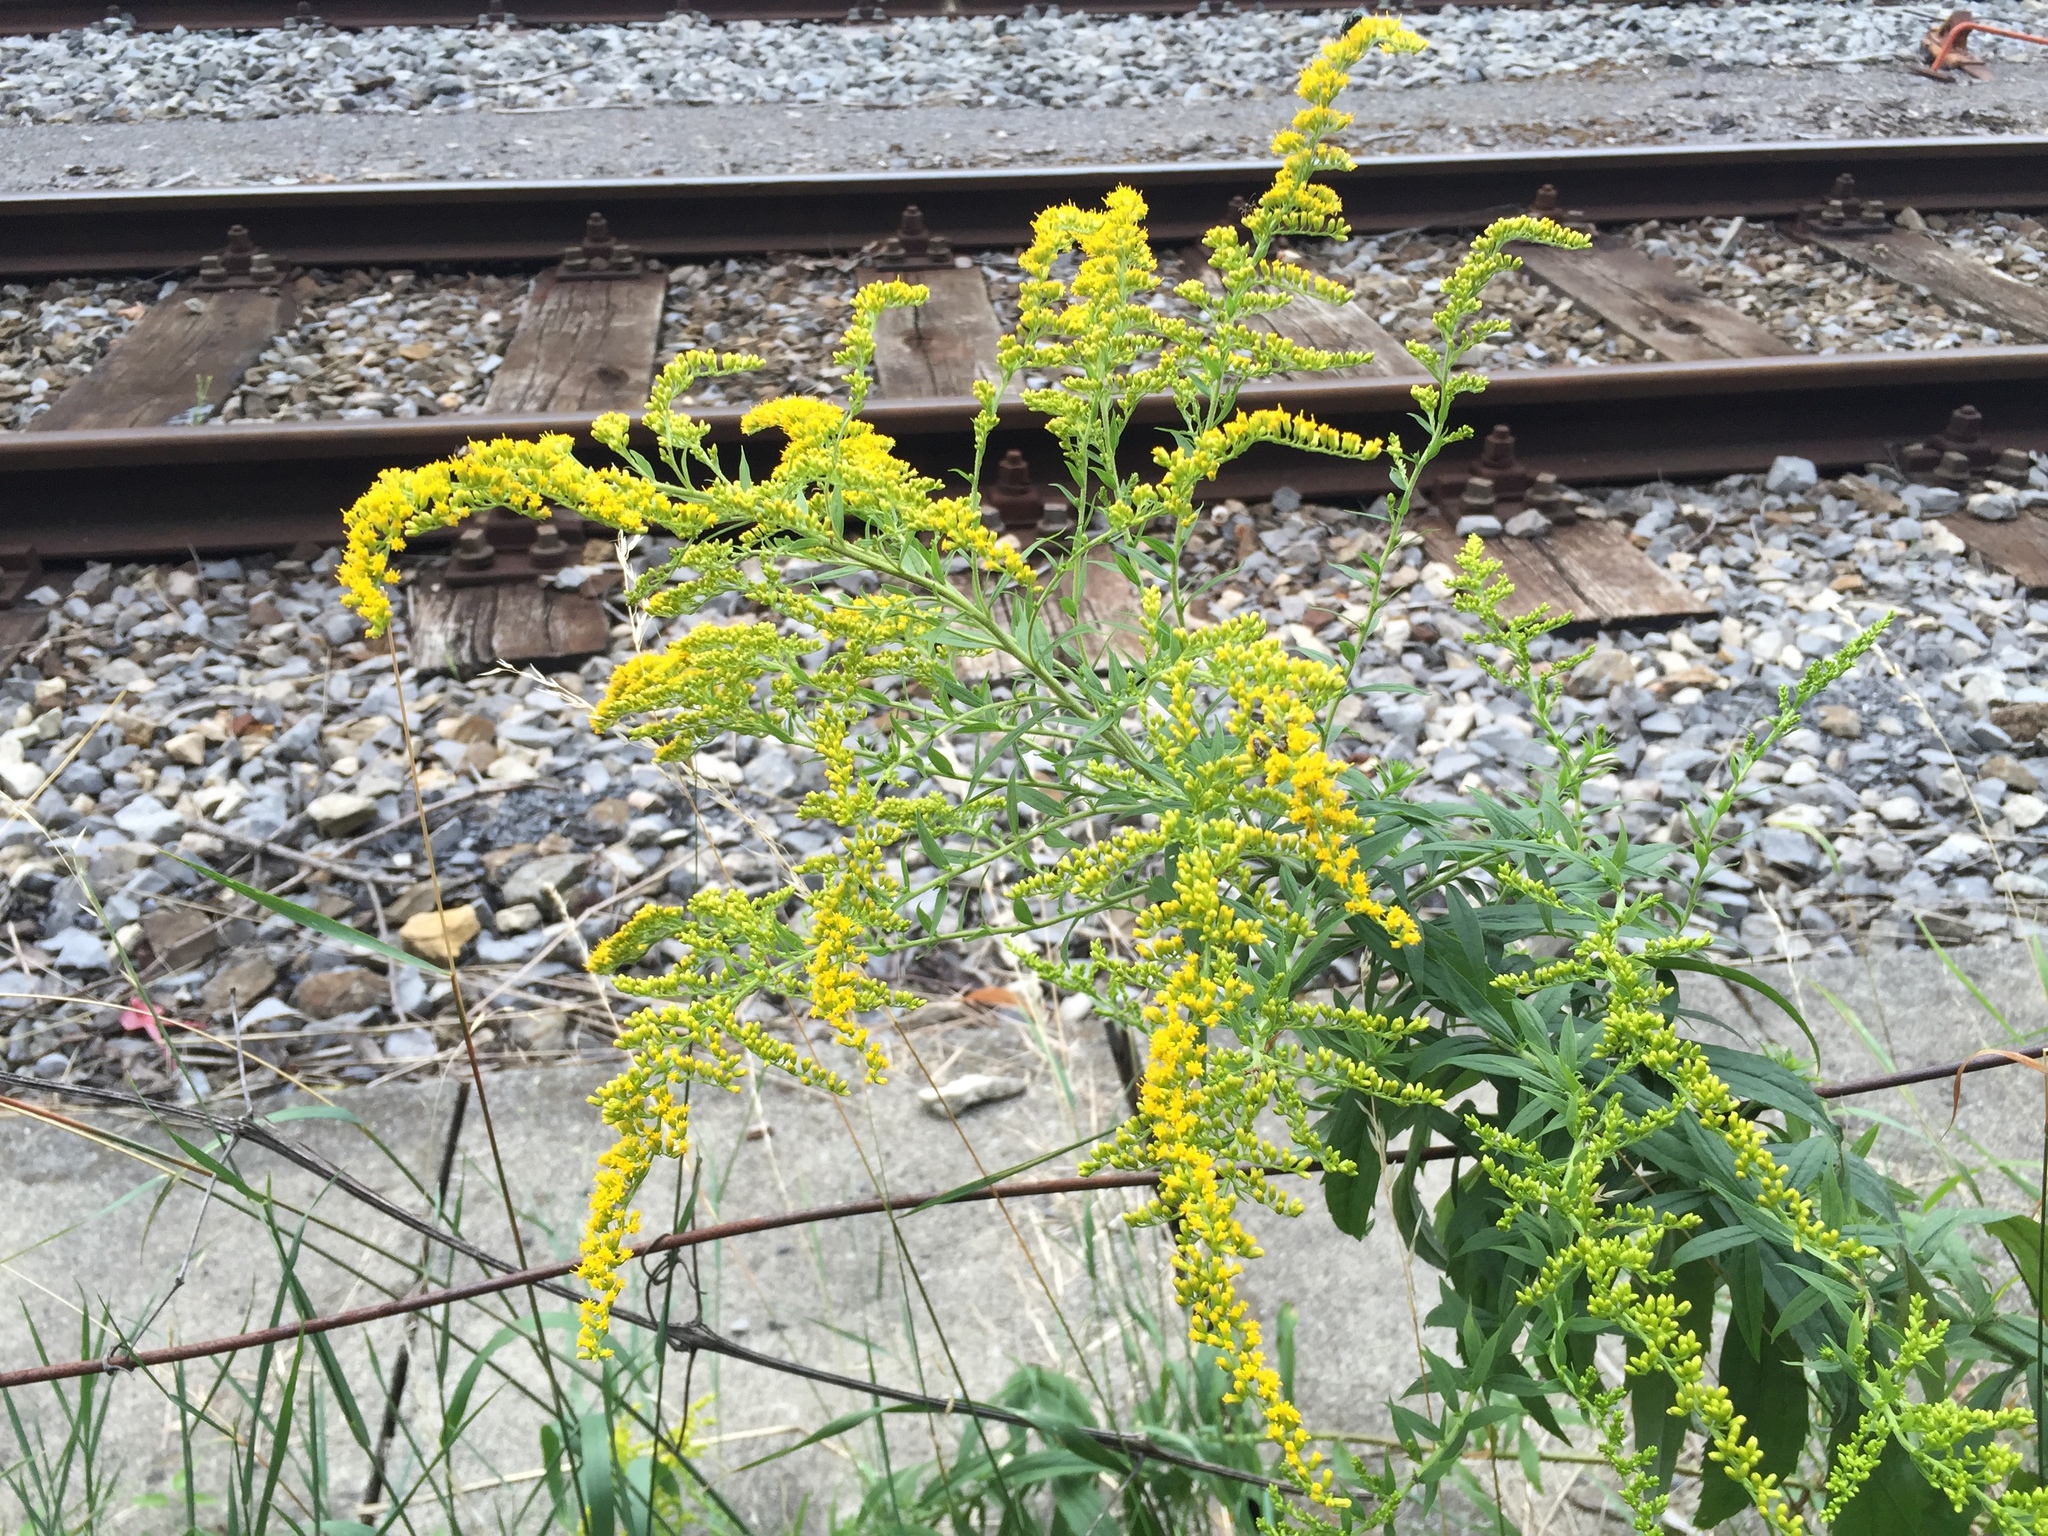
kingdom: Plantae
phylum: Tracheophyta
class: Magnoliopsida
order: Asterales
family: Asteraceae
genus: Solidago
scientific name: Solidago canadensis
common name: Canada goldenrod
